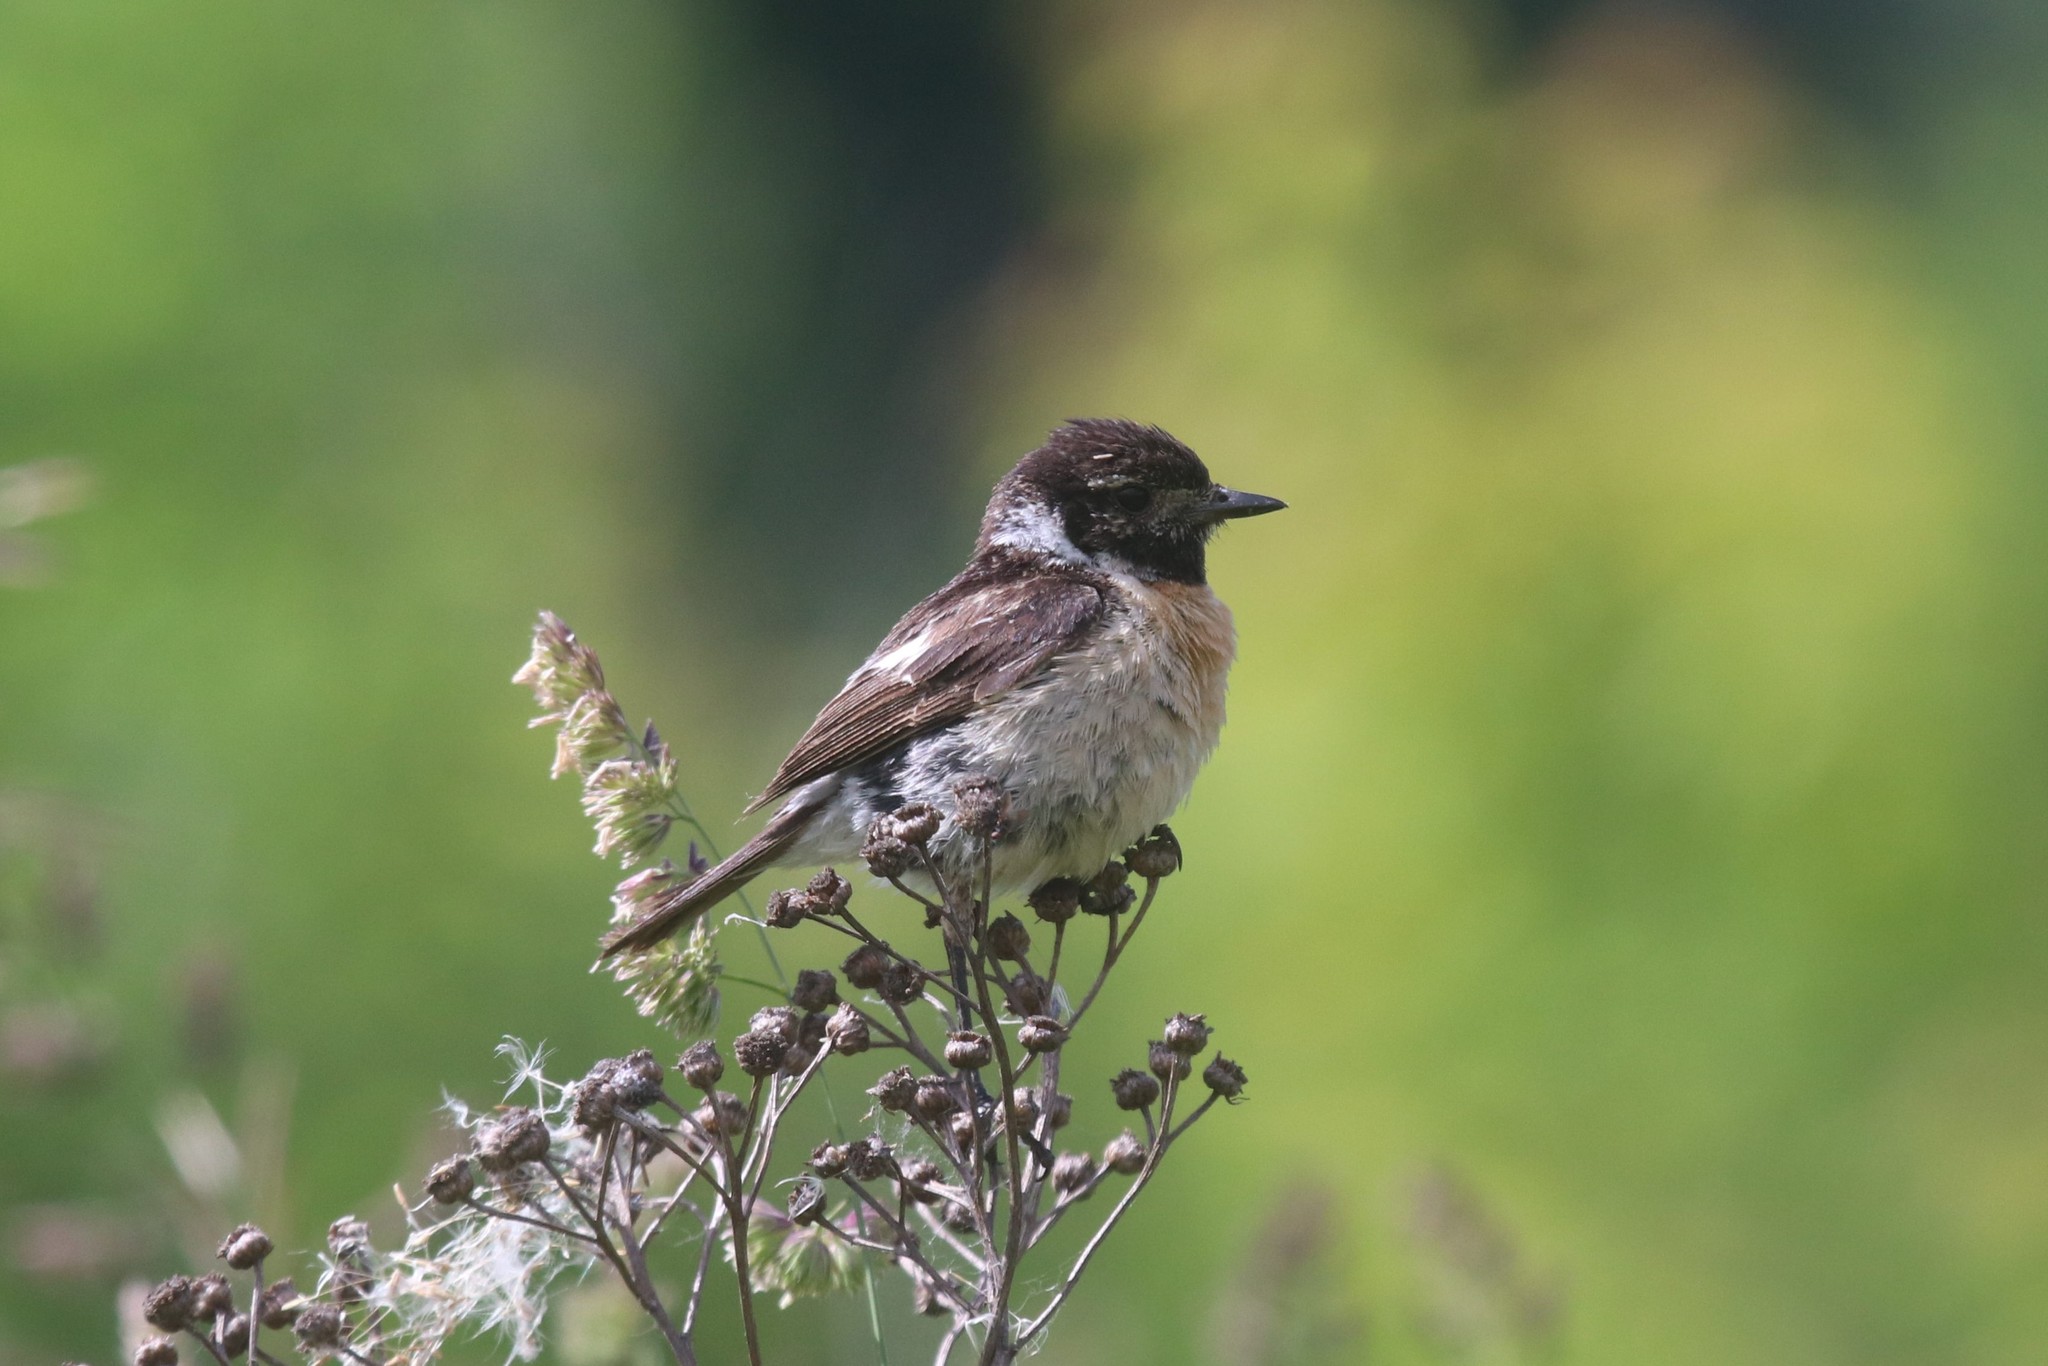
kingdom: Animalia
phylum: Chordata
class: Aves
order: Passeriformes
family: Muscicapidae
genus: Saxicola
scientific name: Saxicola maurus
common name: Siberian stonechat
